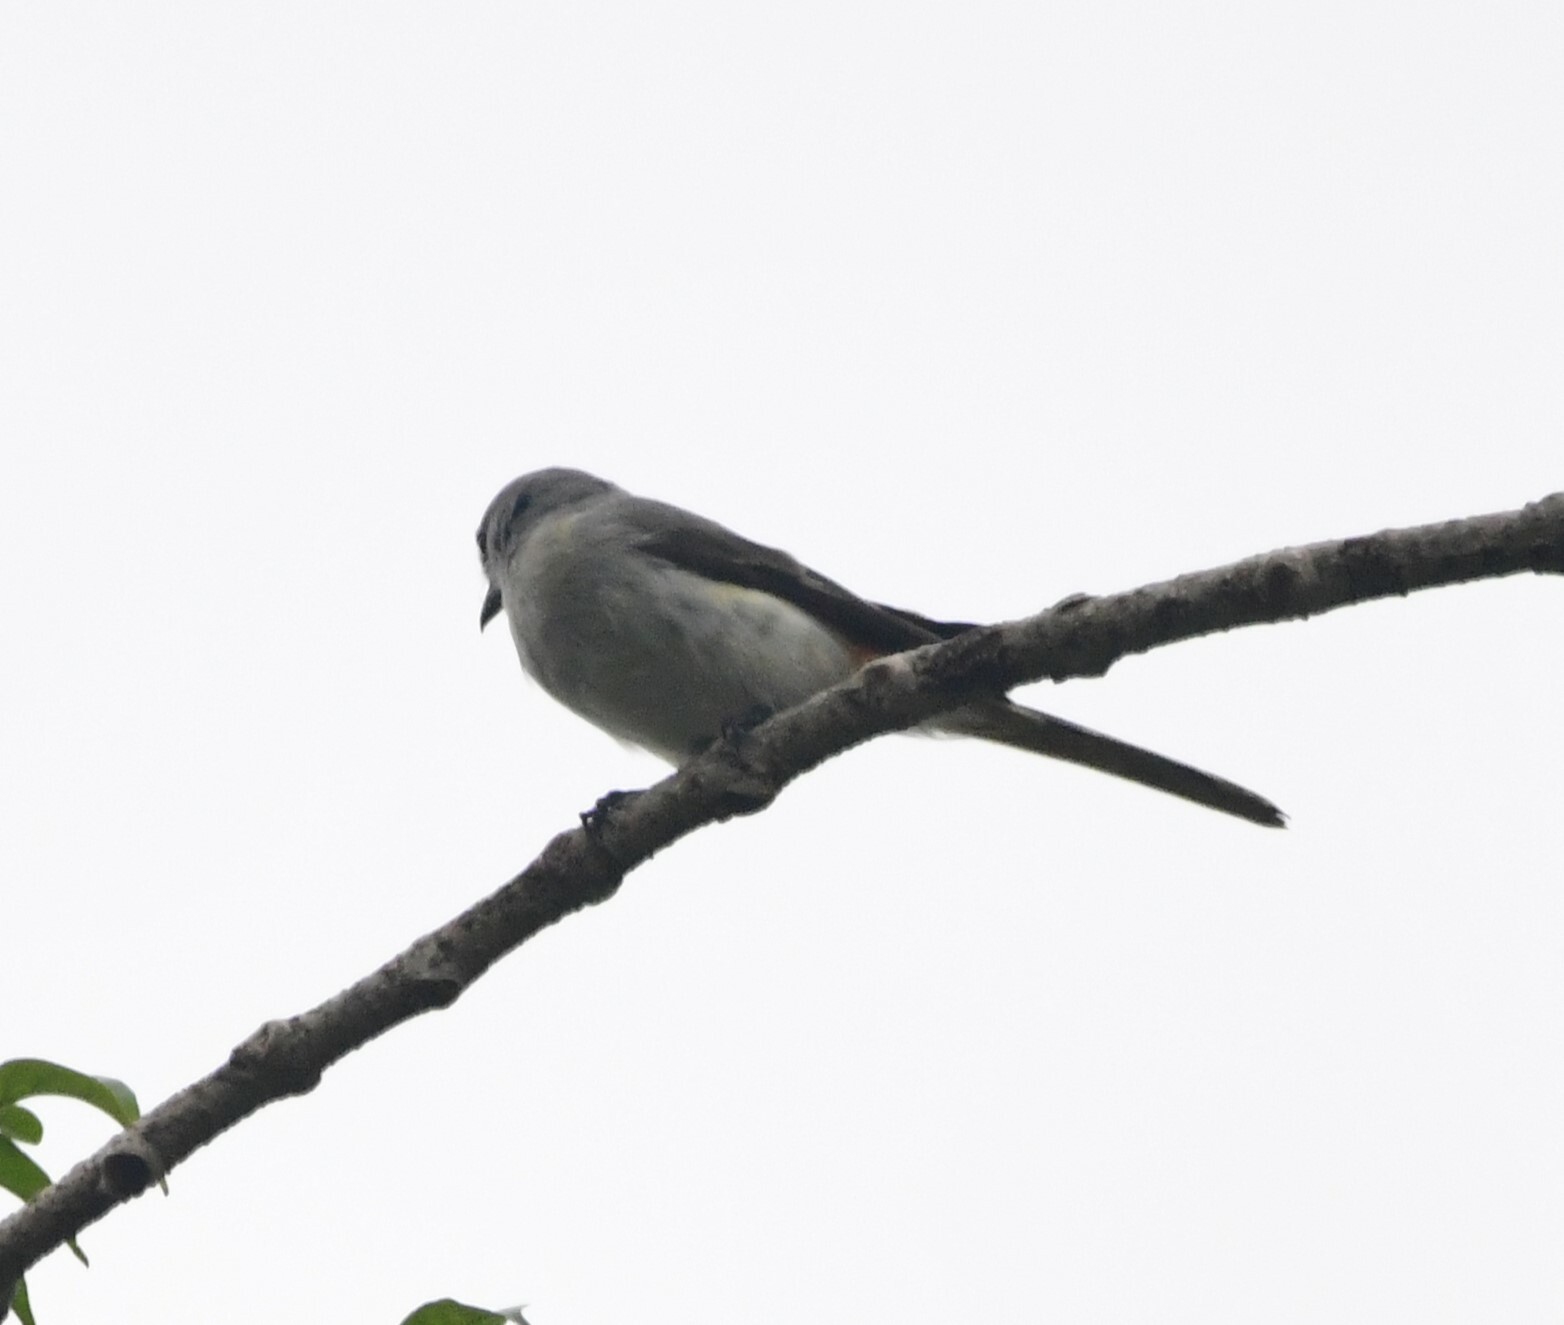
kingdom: Animalia
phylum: Chordata
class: Aves
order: Passeriformes
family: Campephagidae
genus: Pericrocotus
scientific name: Pericrocotus cinnamomeus
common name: Small minivet
